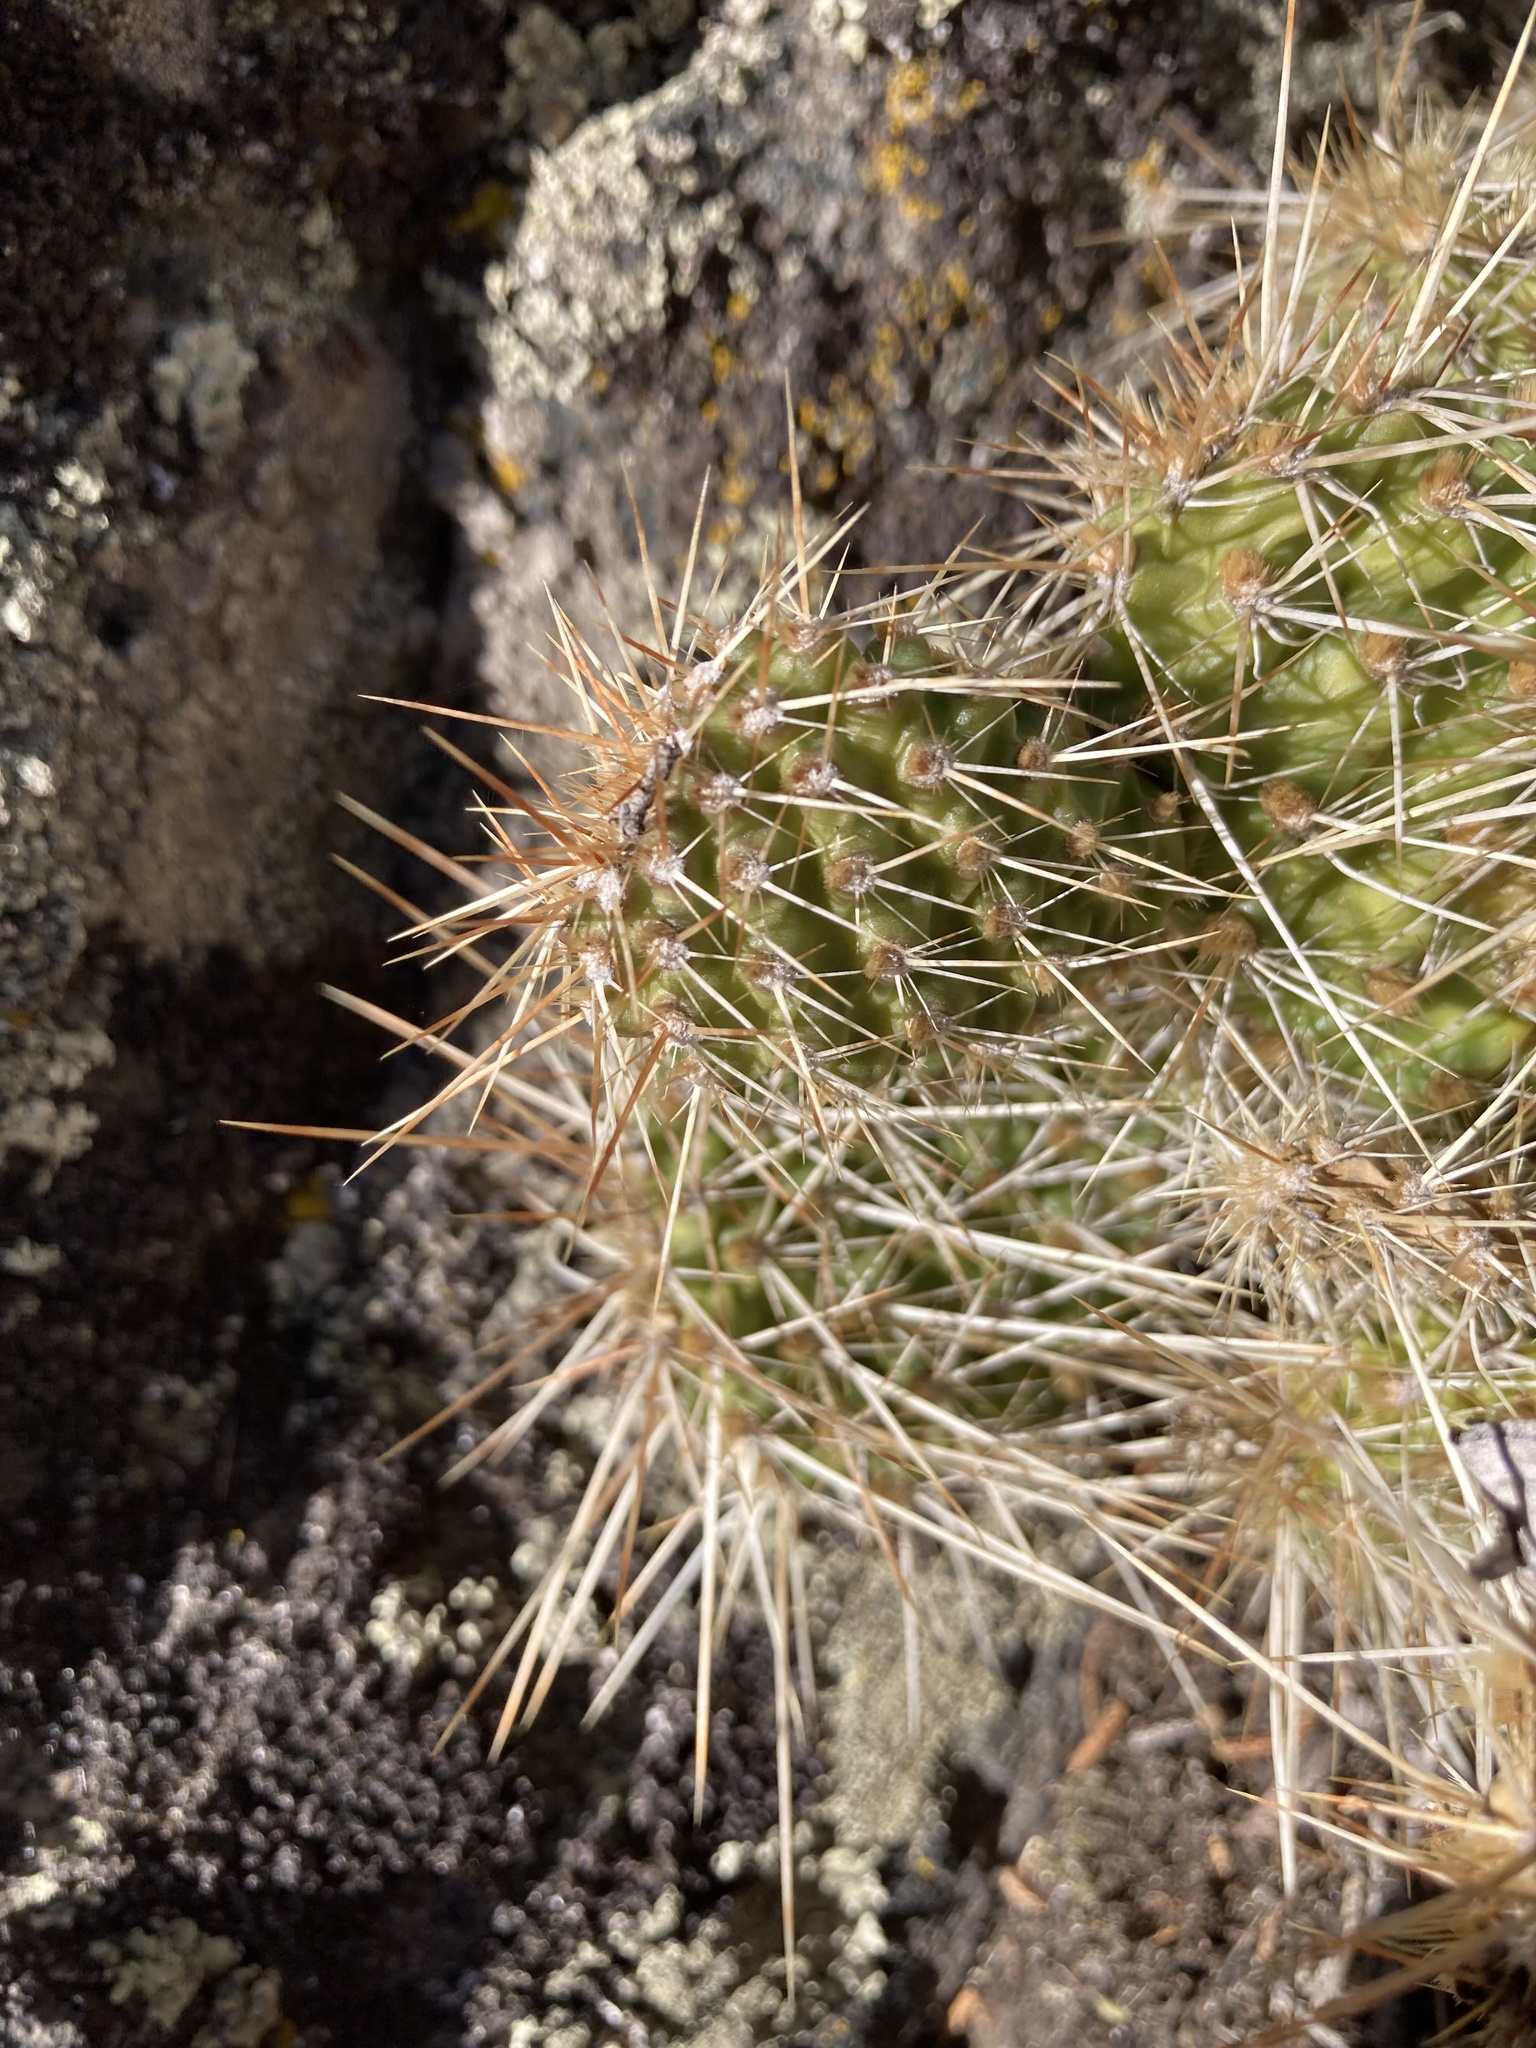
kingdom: Plantae
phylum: Tracheophyta
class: Magnoliopsida
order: Caryophyllales
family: Cactaceae
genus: Opuntia
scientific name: Opuntia polyacantha
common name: Plains prickly-pear
